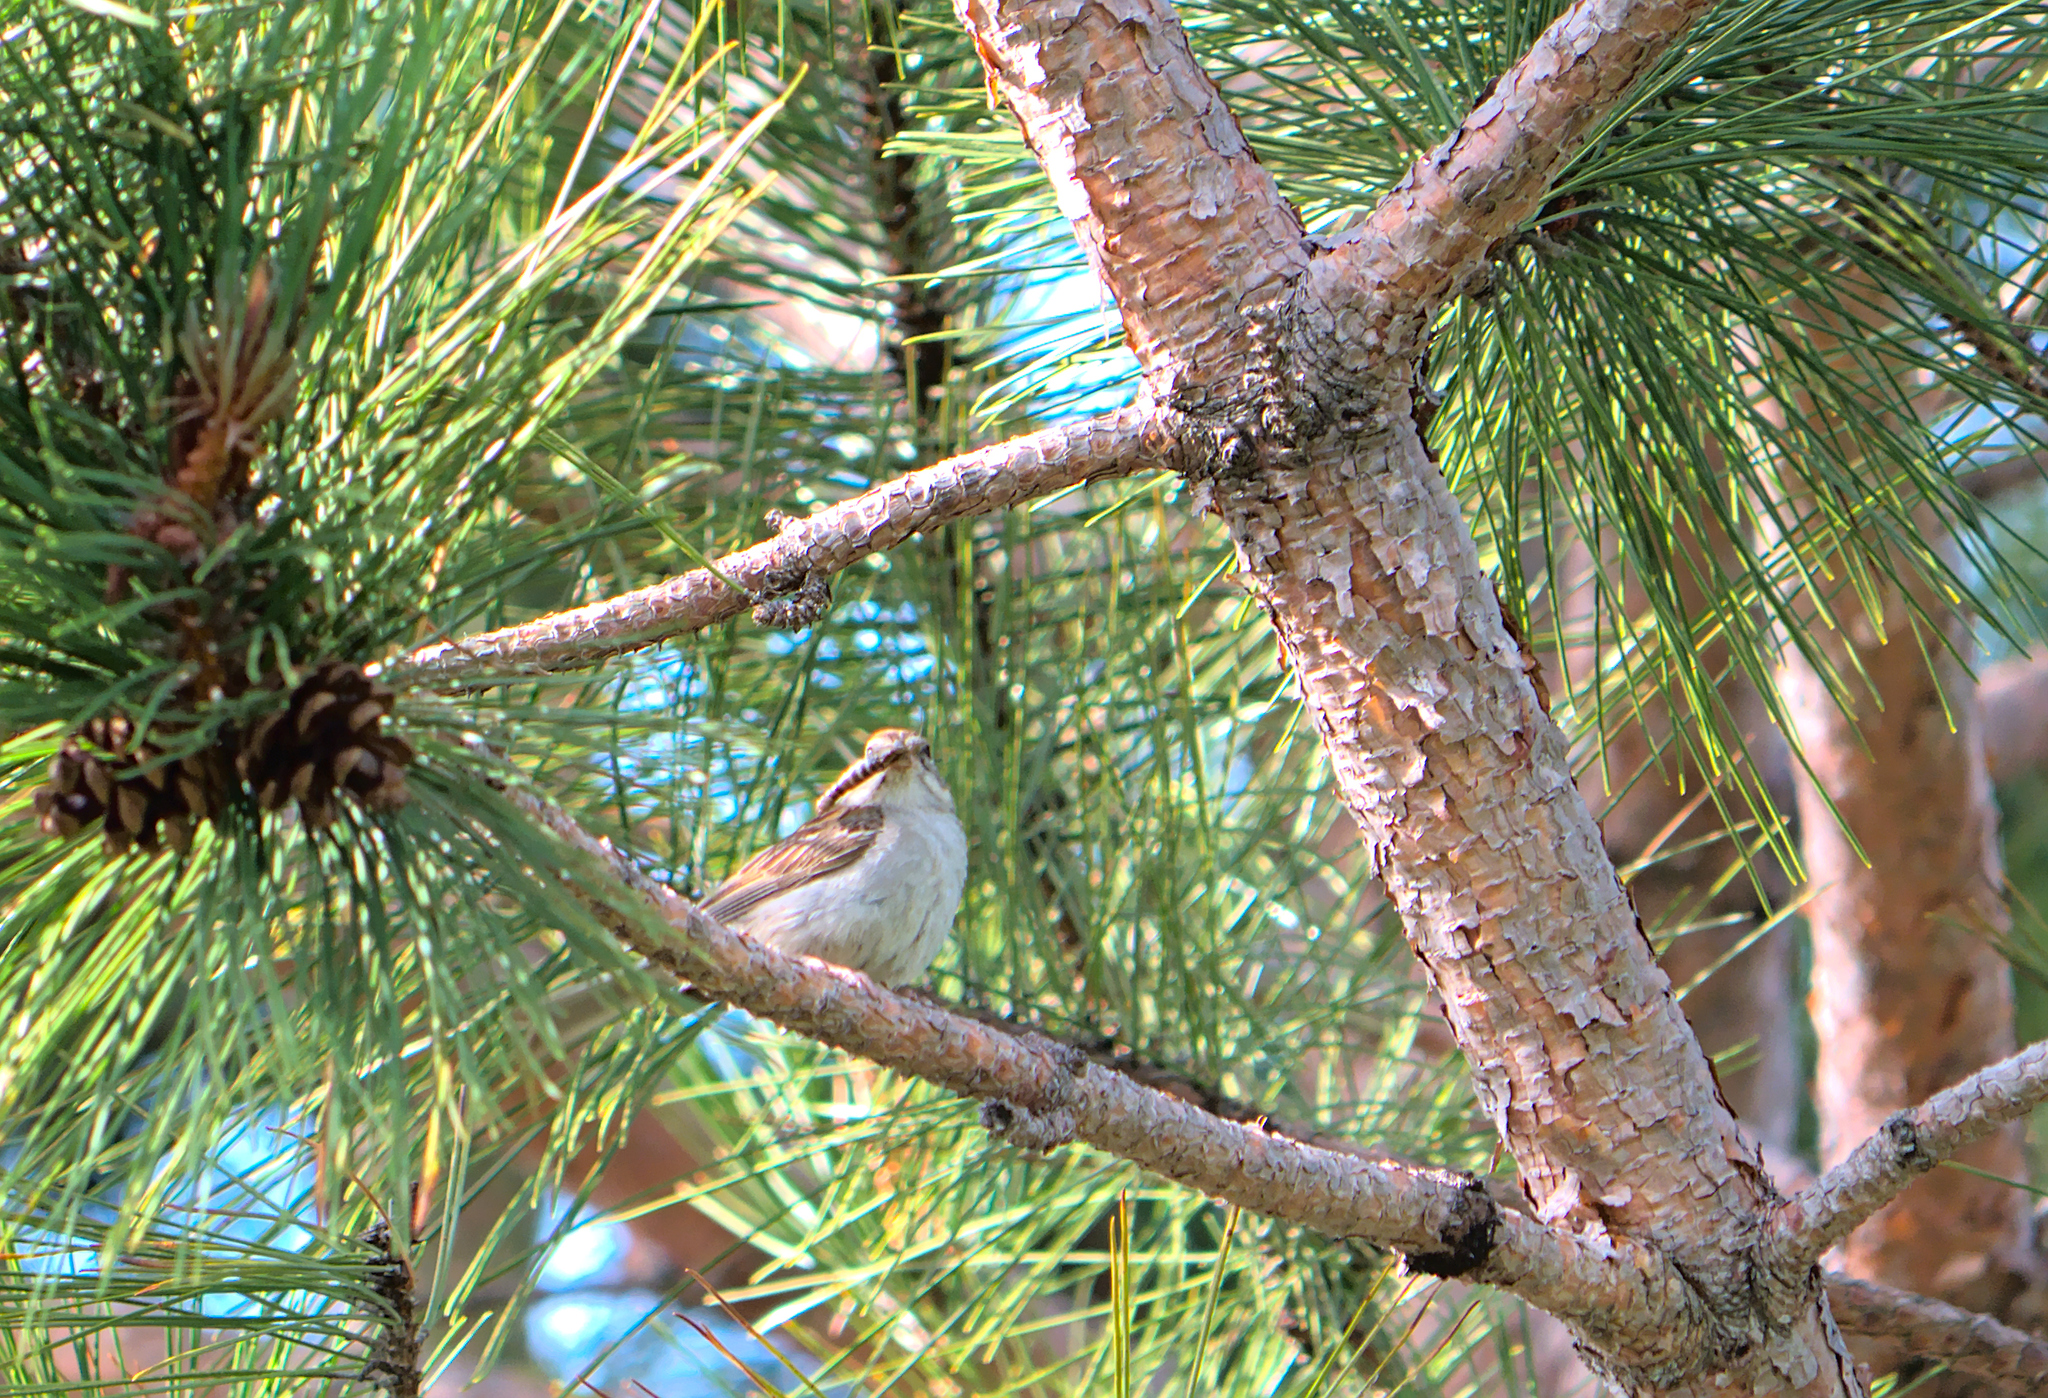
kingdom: Animalia
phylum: Chordata
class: Aves
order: Passeriformes
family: Passerellidae
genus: Spizella
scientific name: Spizella passerina
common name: Chipping sparrow
